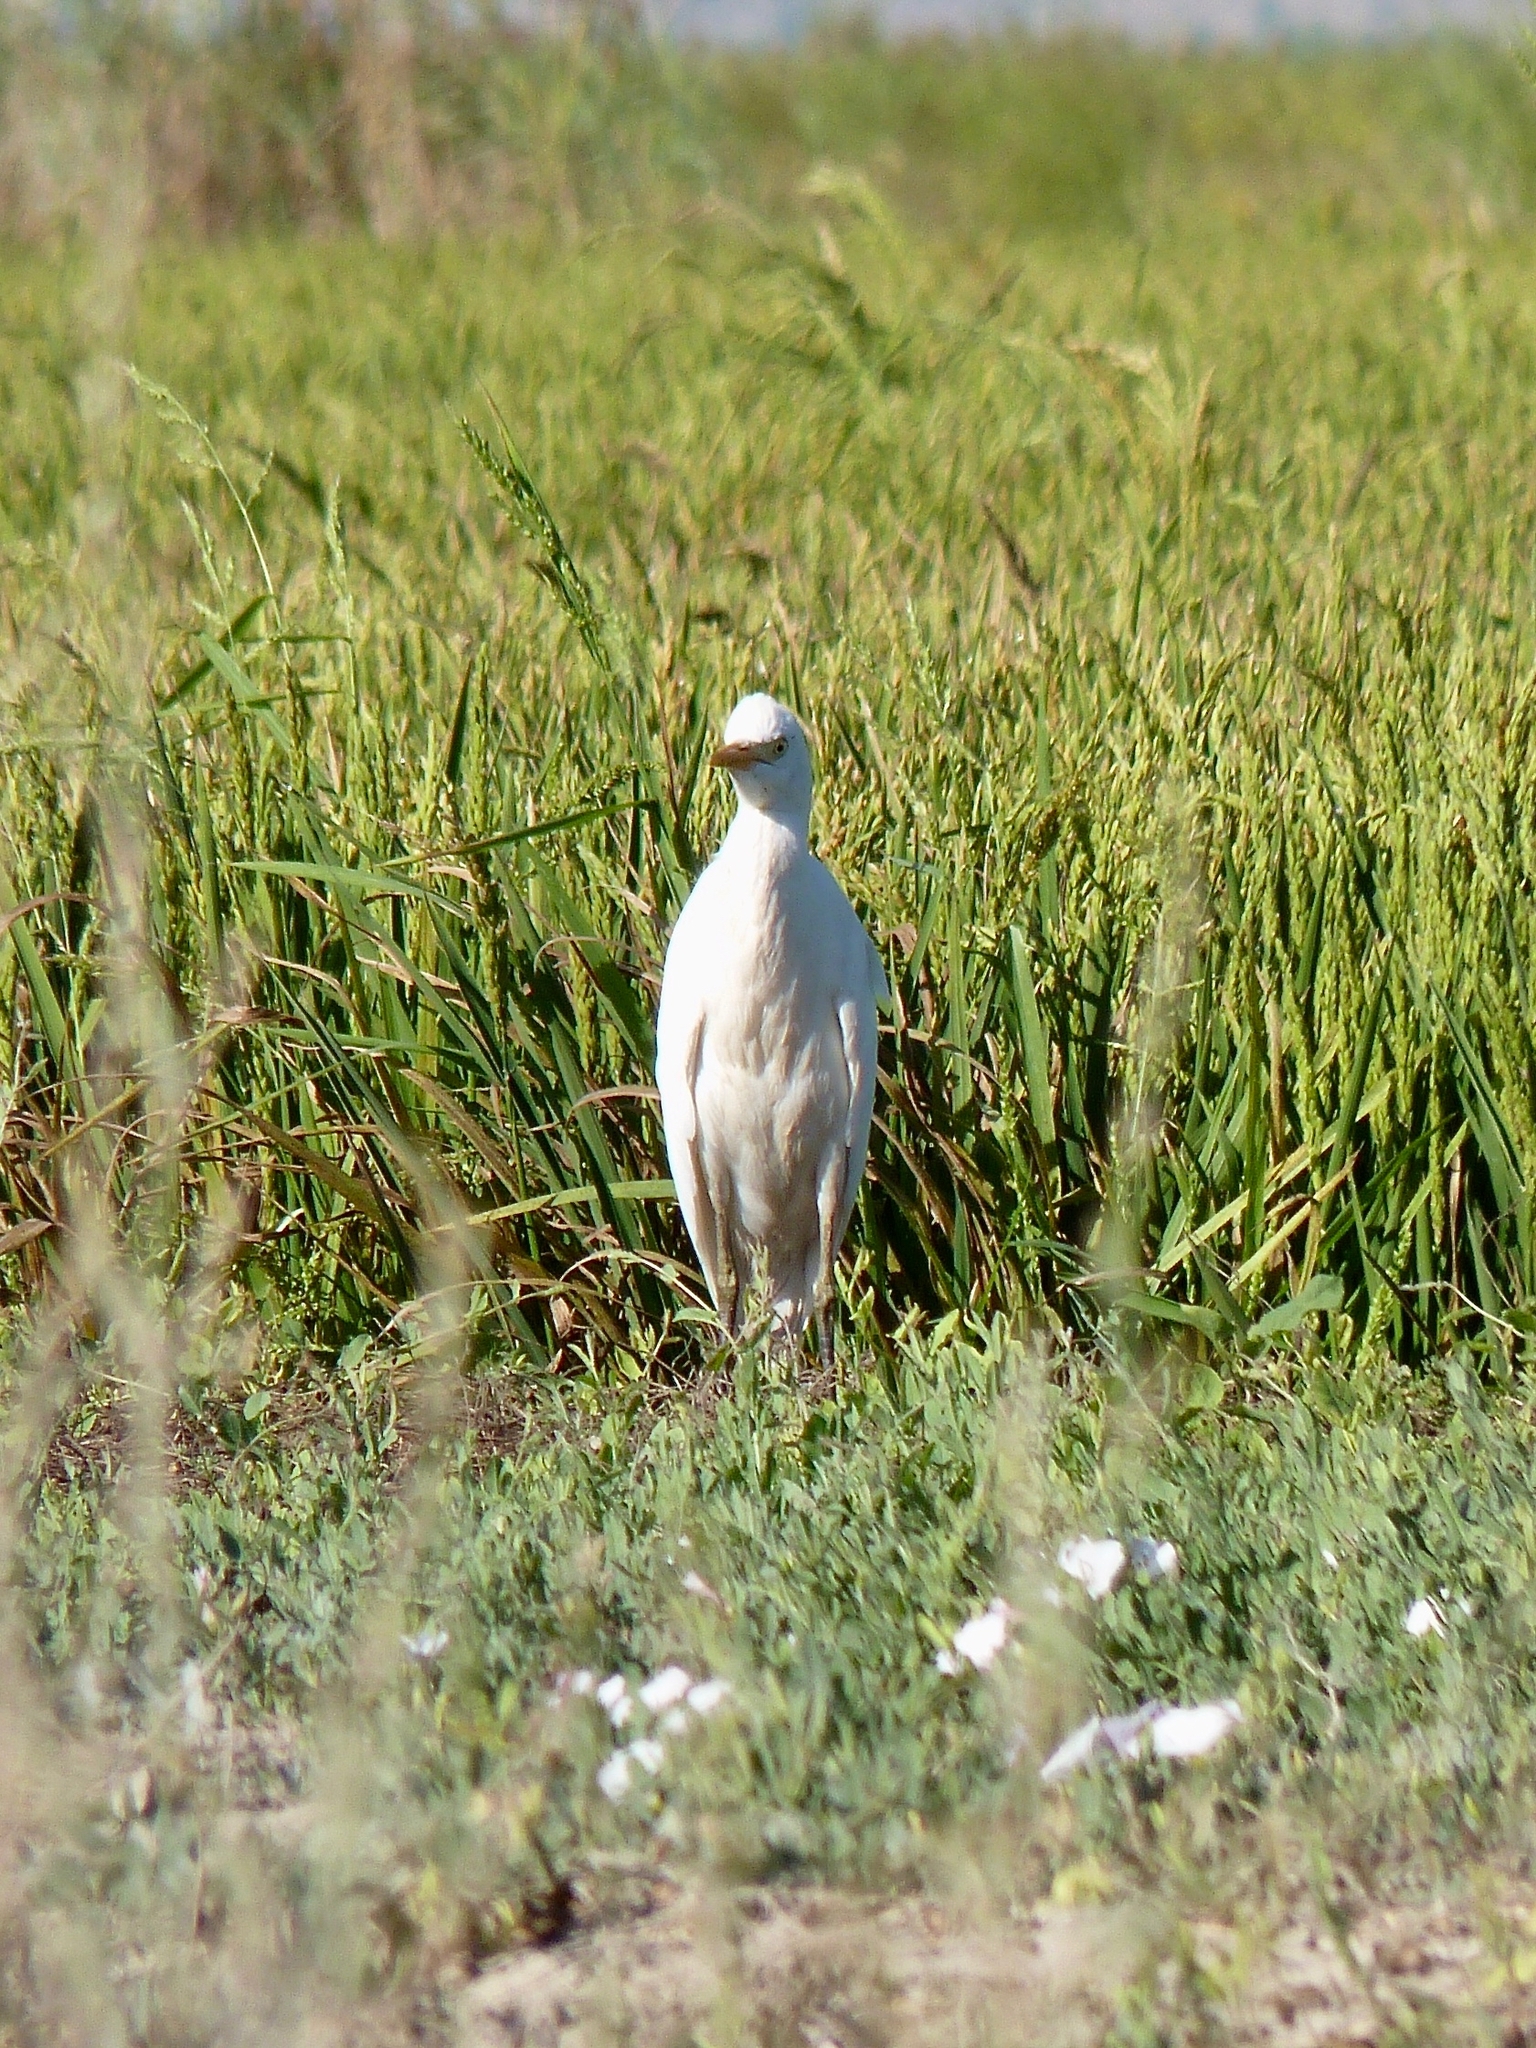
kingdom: Animalia
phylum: Chordata
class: Aves
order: Pelecaniformes
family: Ardeidae
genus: Bubulcus
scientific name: Bubulcus ibis
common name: Cattle egret
